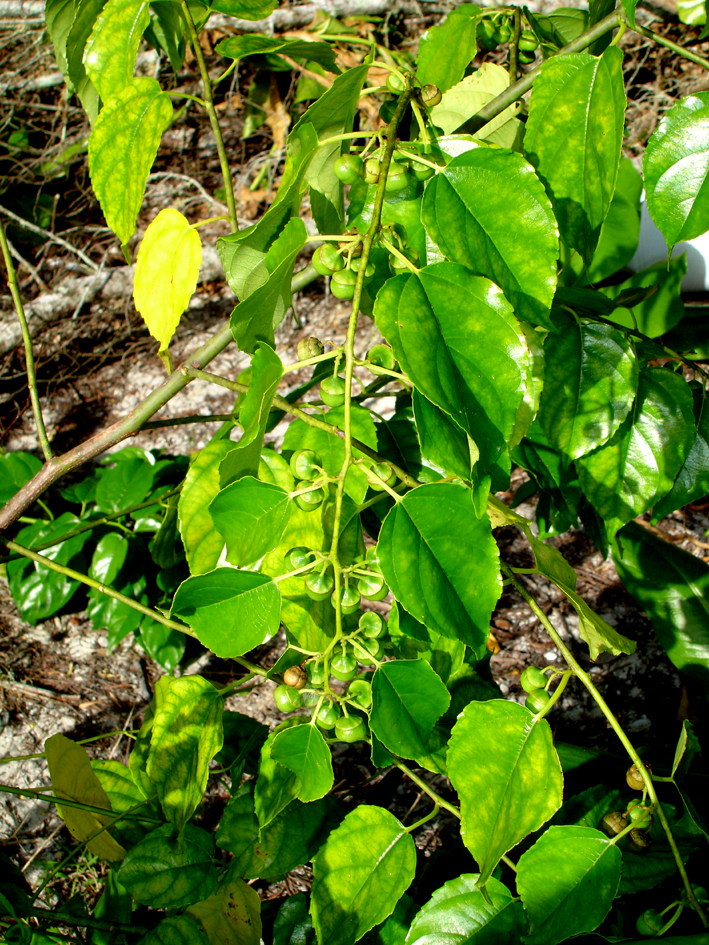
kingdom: Plantae
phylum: Tracheophyta
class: Magnoliopsida
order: Rosales
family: Rhamnaceae
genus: Colubrina
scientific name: Colubrina asiatica
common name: Asian nakedwood
